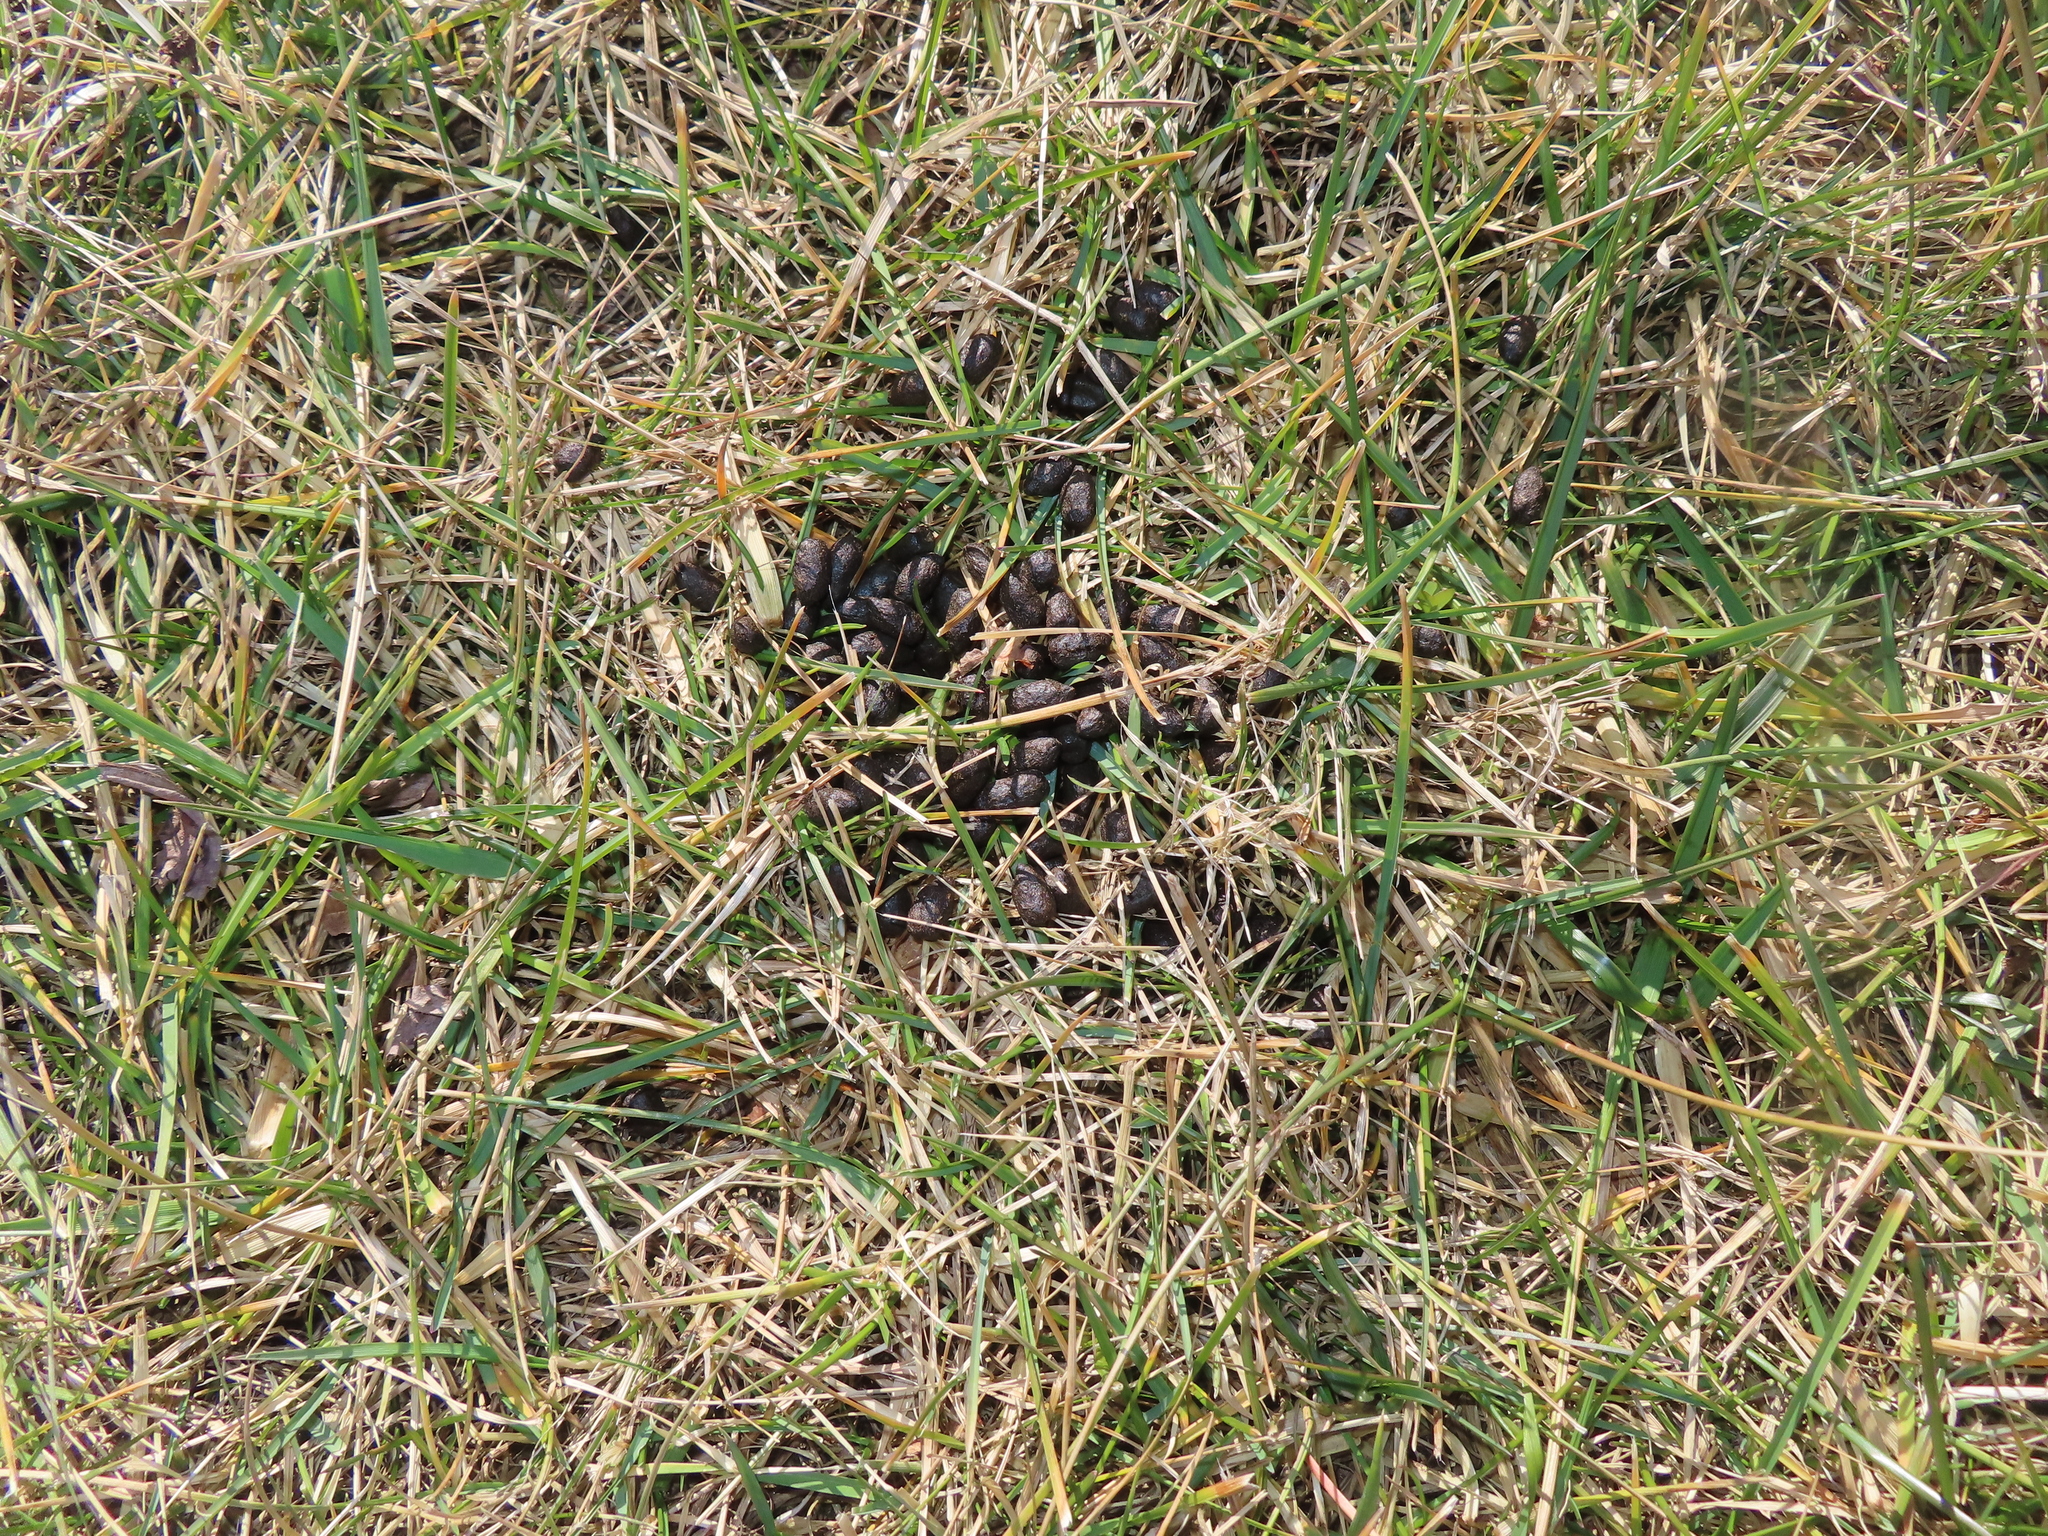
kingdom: Animalia
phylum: Chordata
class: Mammalia
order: Artiodactyla
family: Cervidae
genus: Odocoileus
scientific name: Odocoileus virginianus
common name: White-tailed deer
